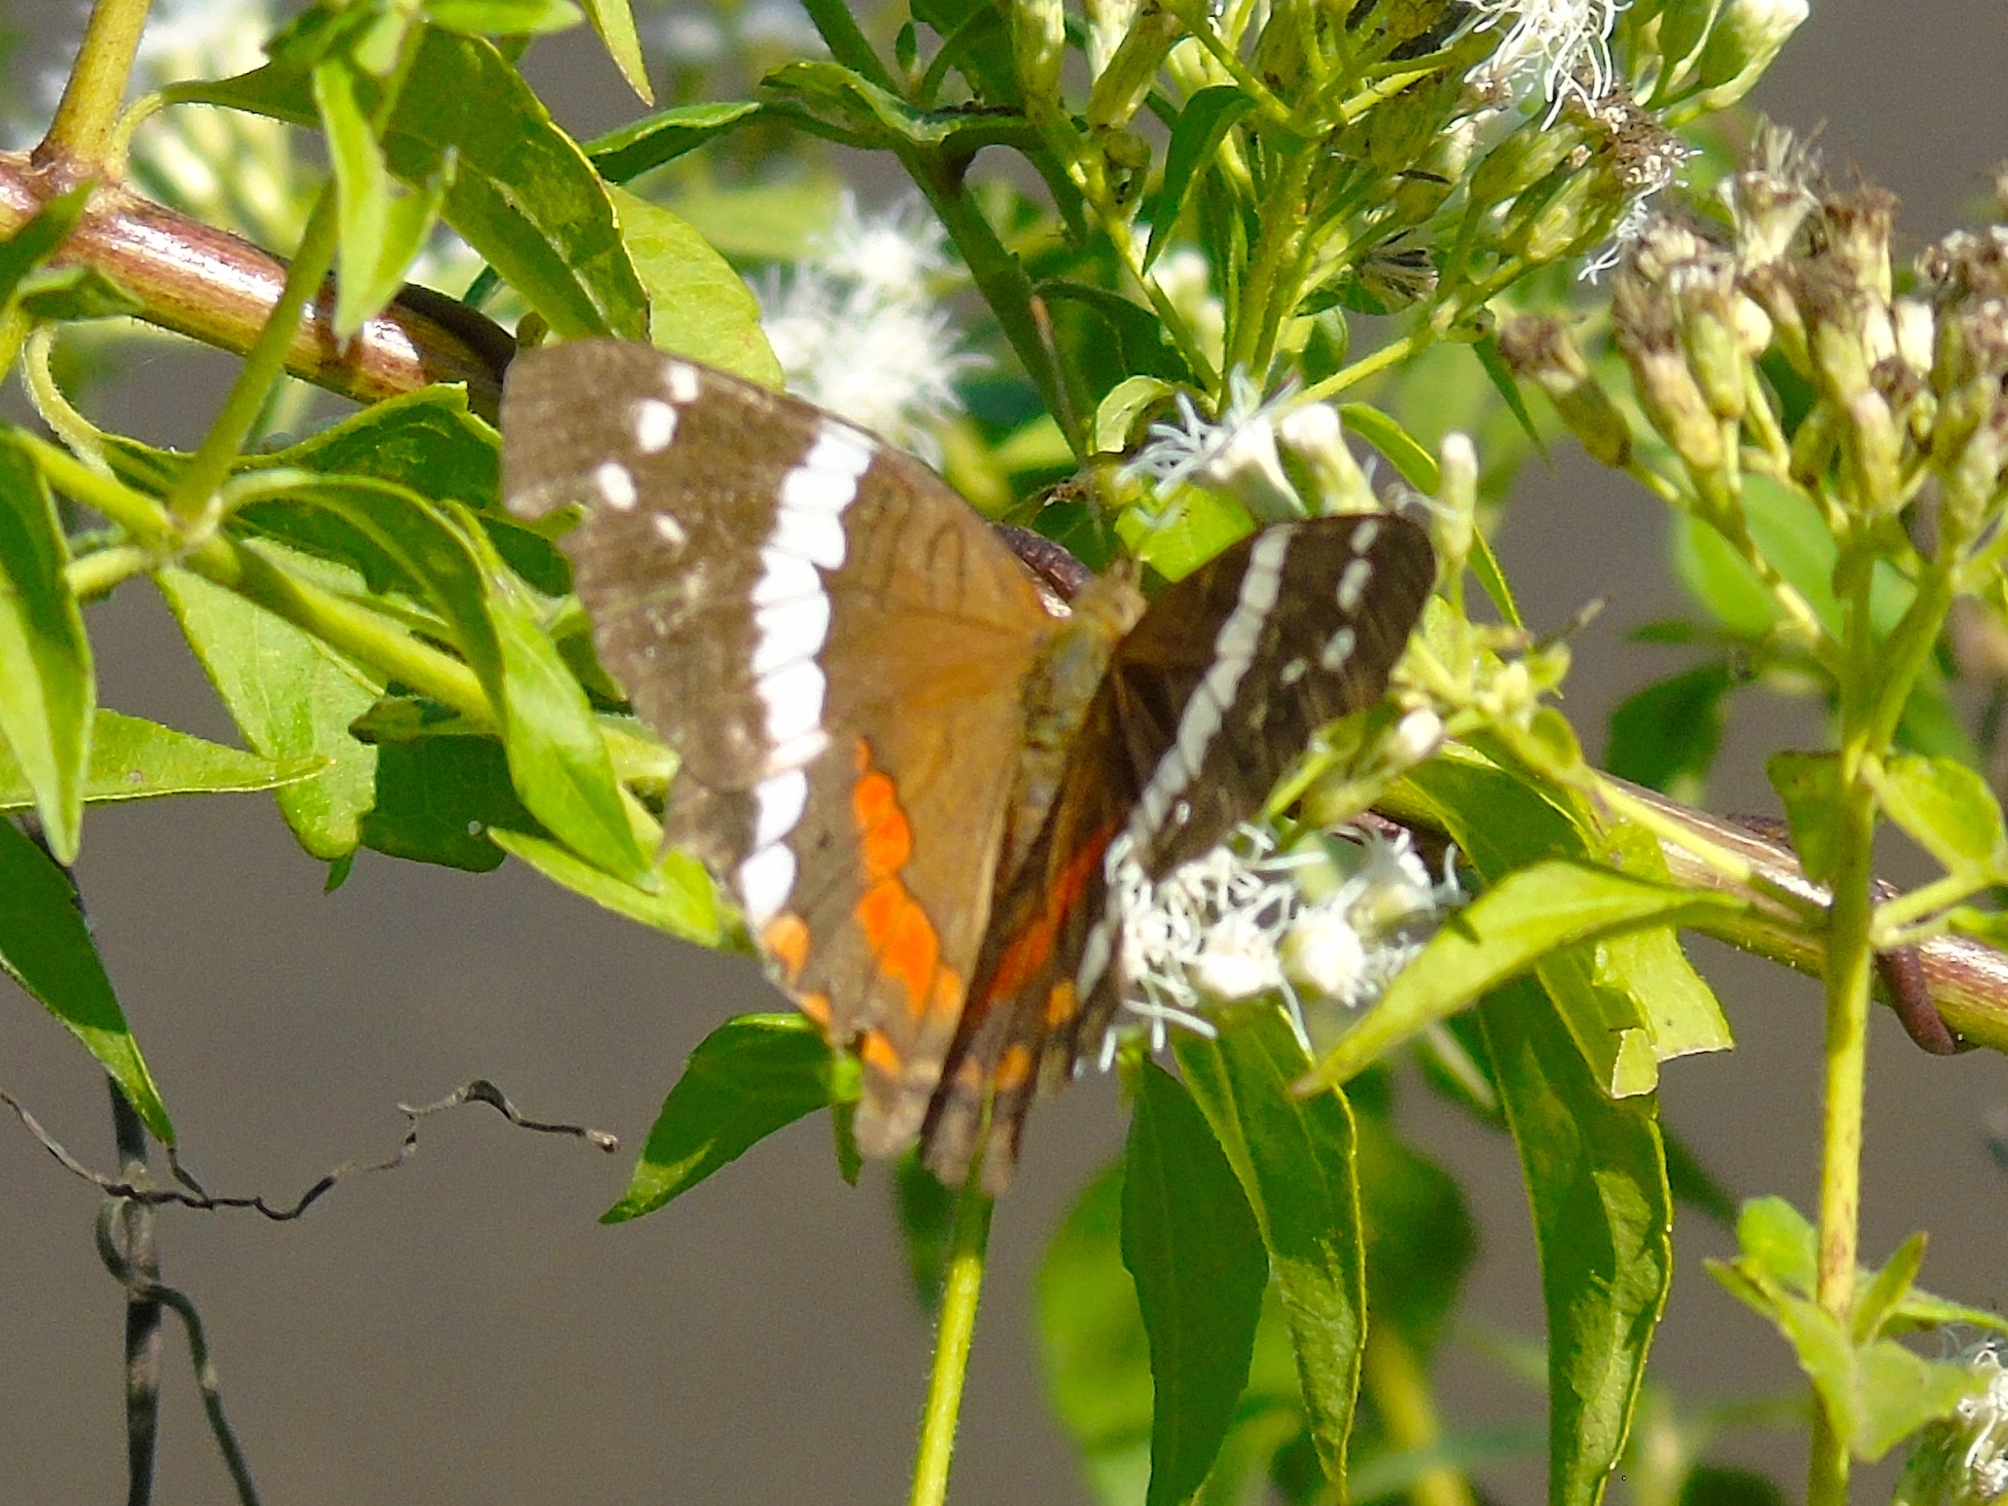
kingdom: Animalia
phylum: Arthropoda
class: Insecta
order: Lepidoptera
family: Nymphalidae
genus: Anartia
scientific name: Anartia fatima
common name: Banded peacock
